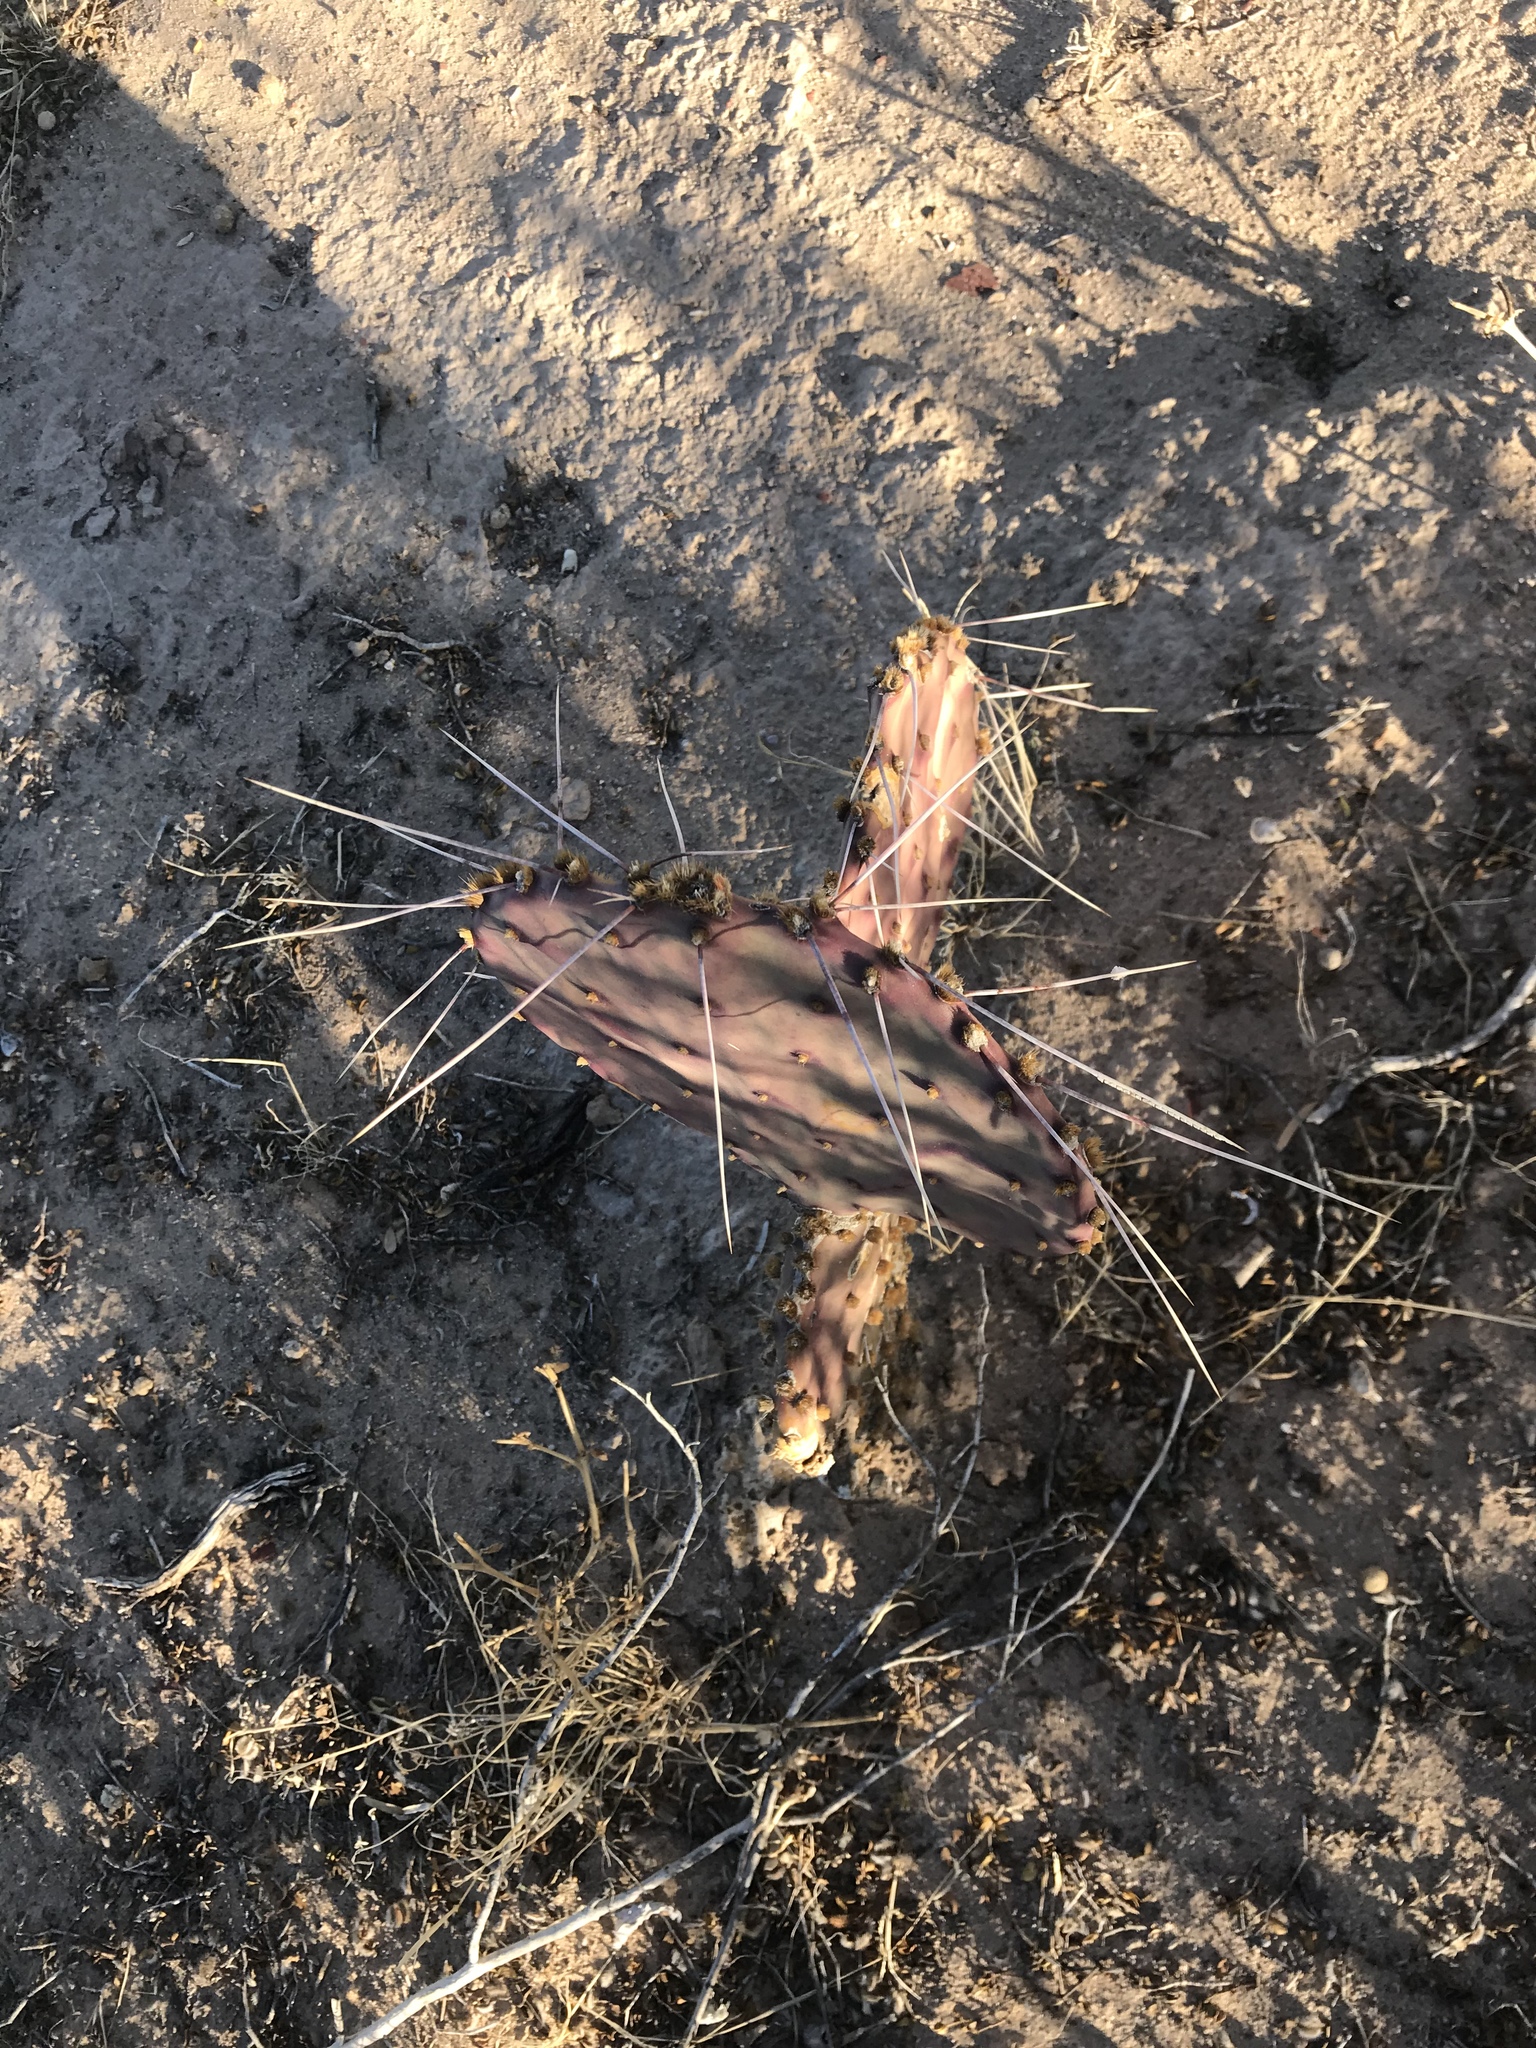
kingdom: Plantae
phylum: Tracheophyta
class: Magnoliopsida
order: Caryophyllales
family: Cactaceae
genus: Opuntia
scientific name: Opuntia macrocentra
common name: Purple prickly-pear
